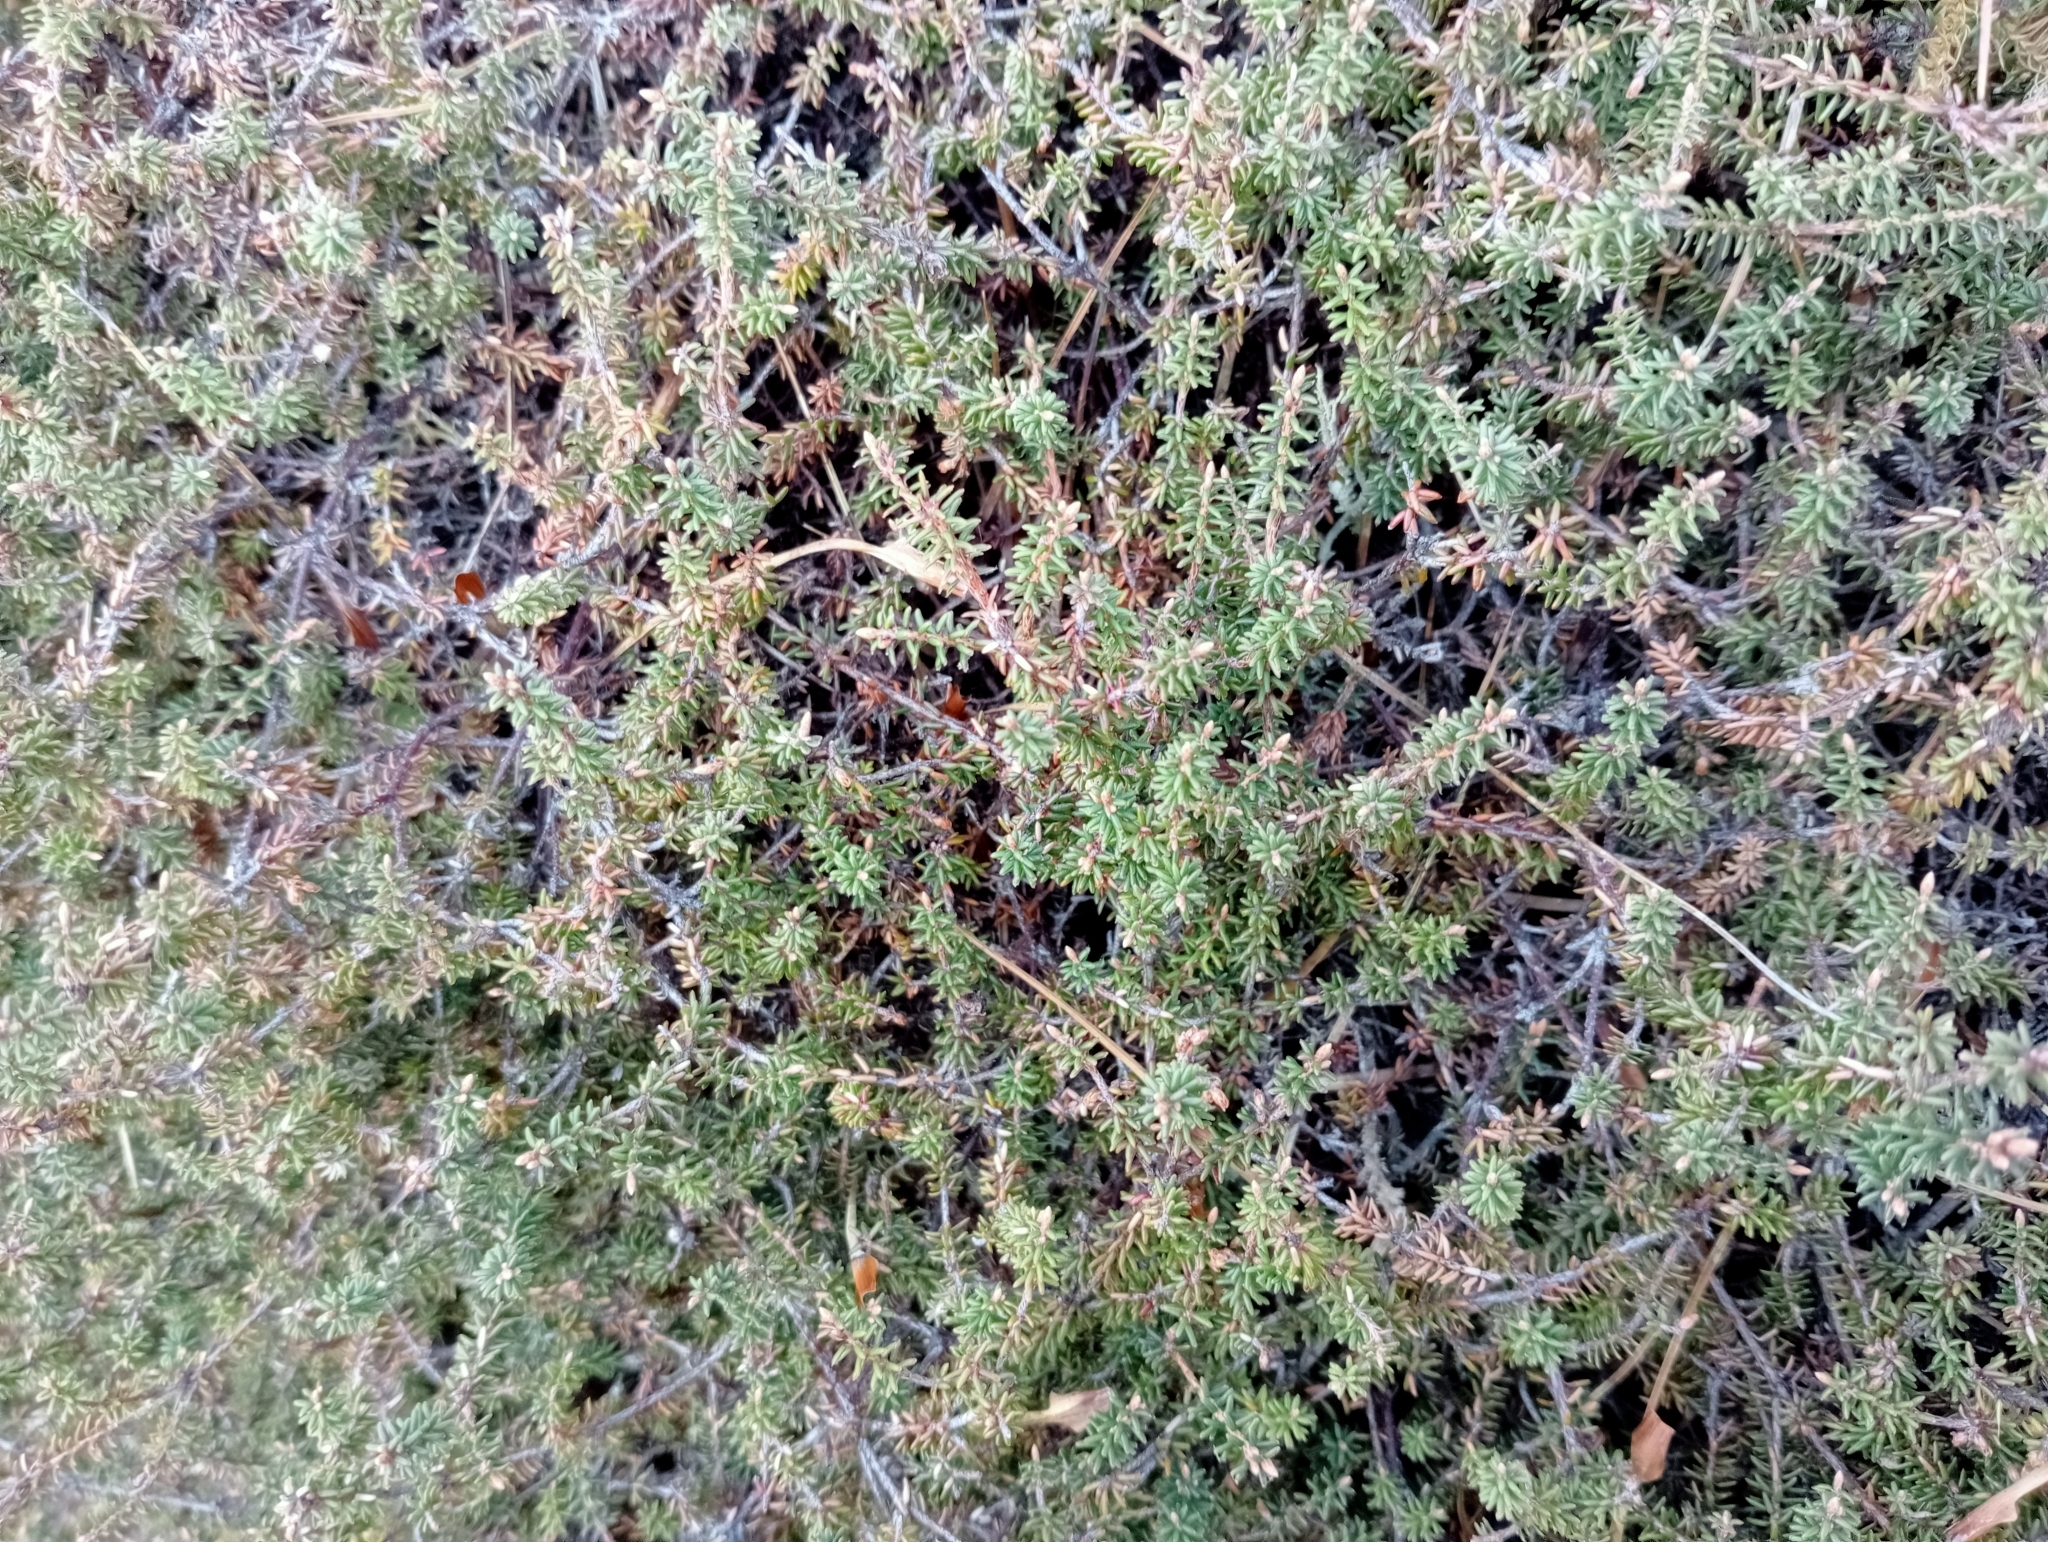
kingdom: Plantae
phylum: Tracheophyta
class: Magnoliopsida
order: Ericales
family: Ericaceae
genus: Androstoma
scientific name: Androstoma empetrifolia
